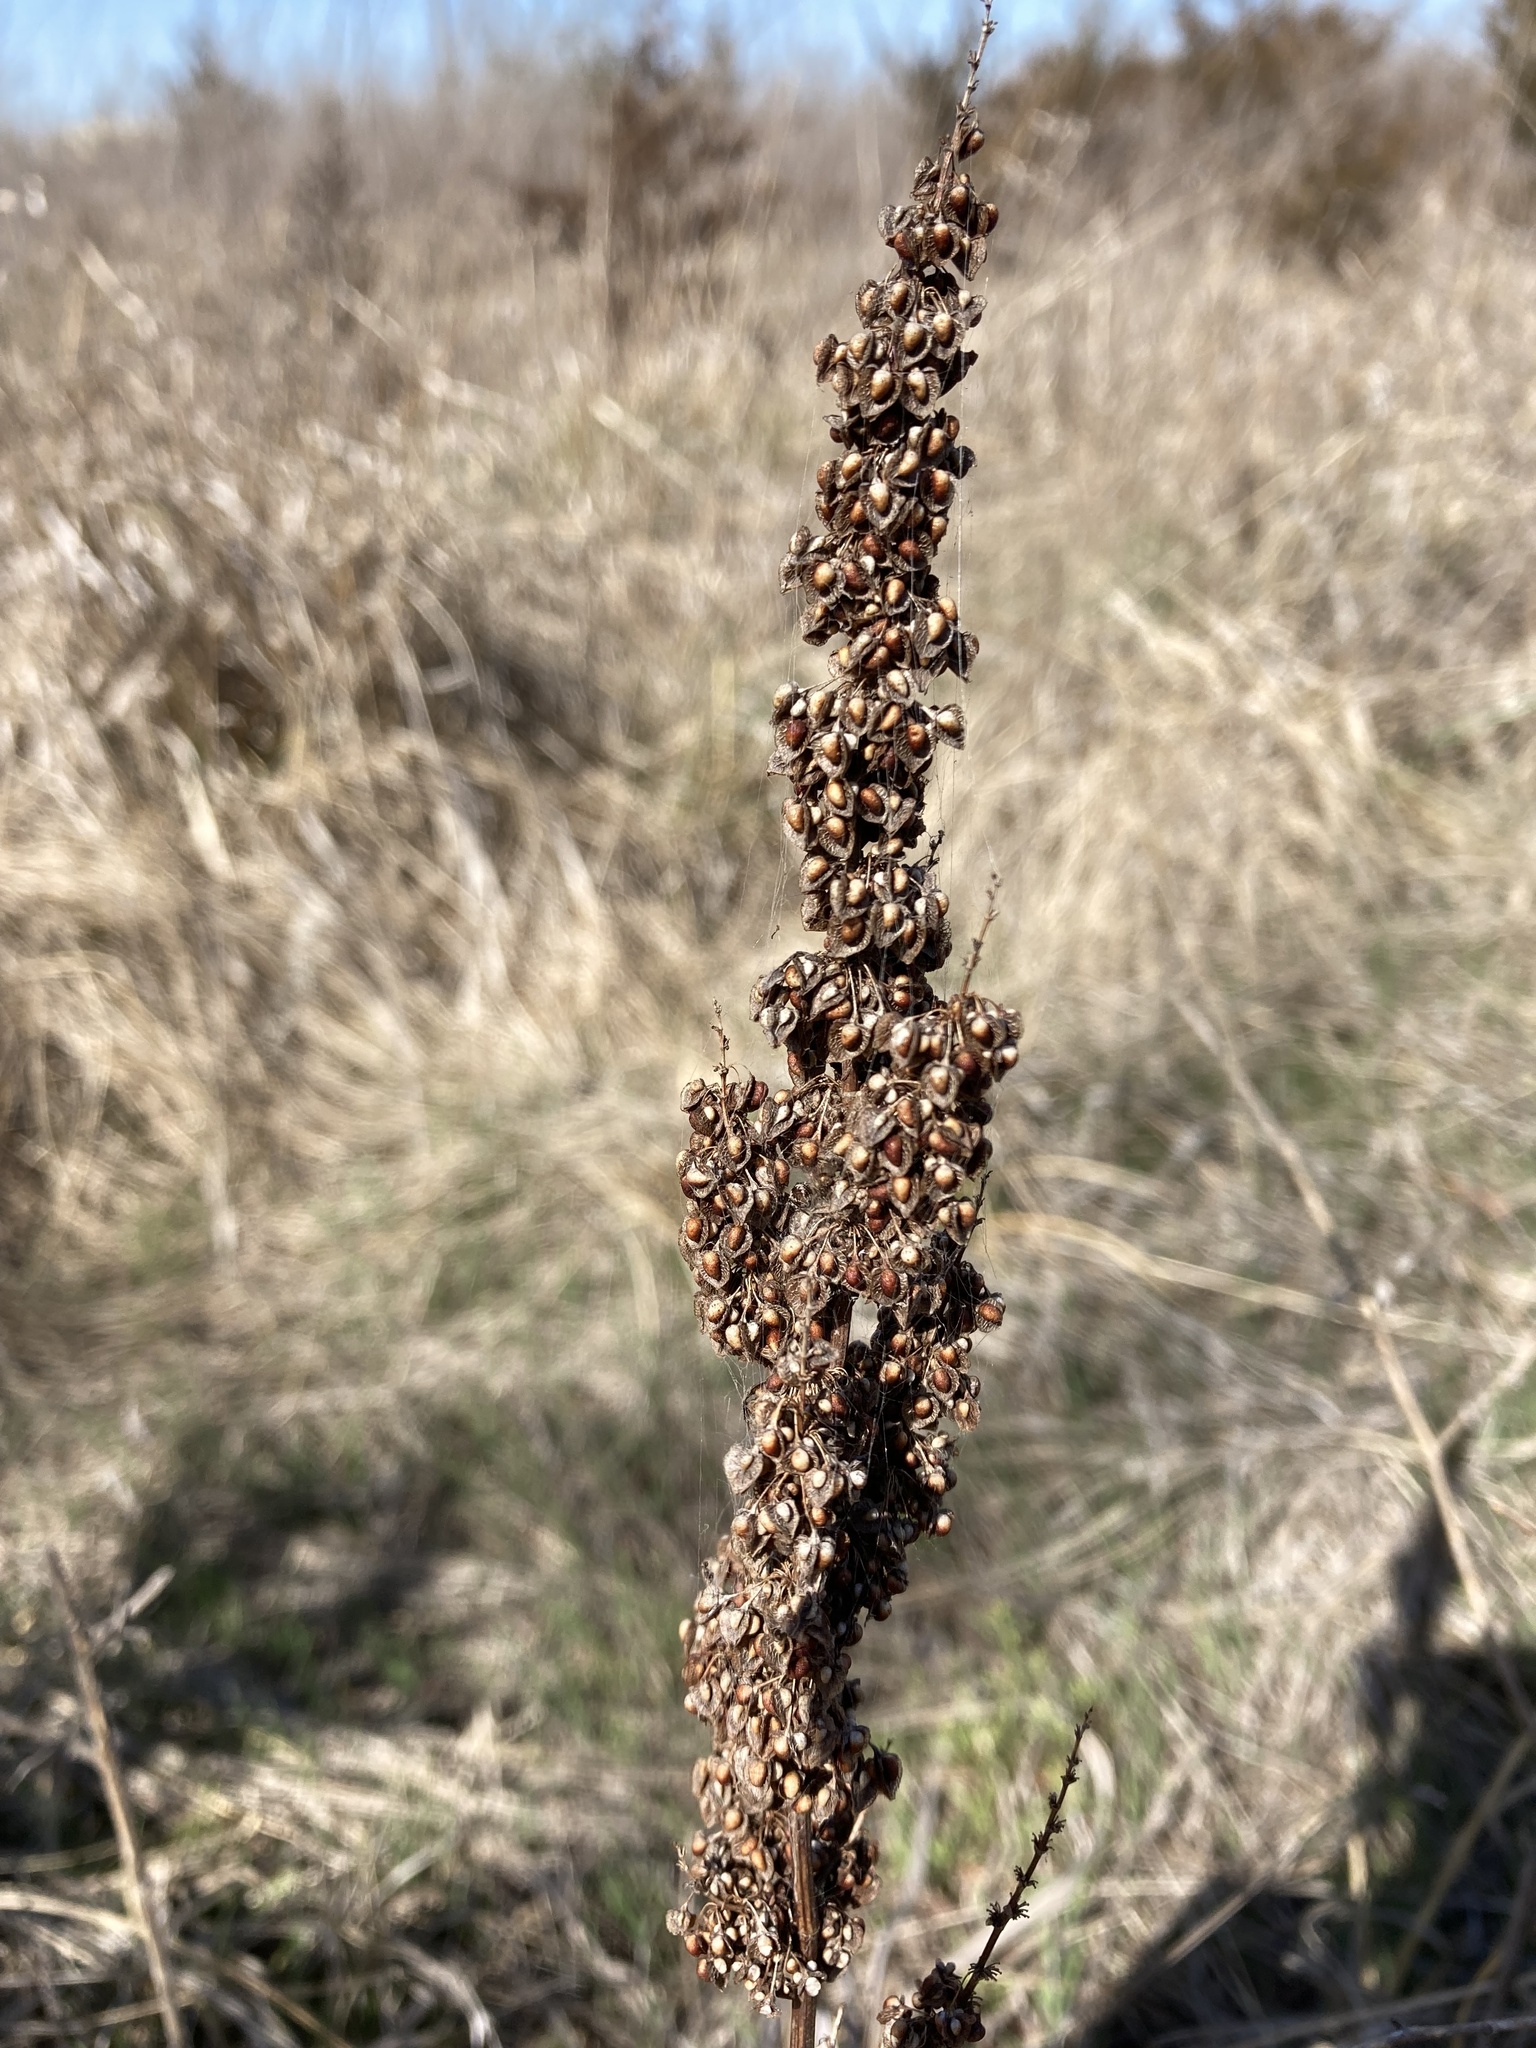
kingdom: Plantae
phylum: Tracheophyta
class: Magnoliopsida
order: Caryophyllales
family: Polygonaceae
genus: Rumex
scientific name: Rumex crispus
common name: Curled dock
